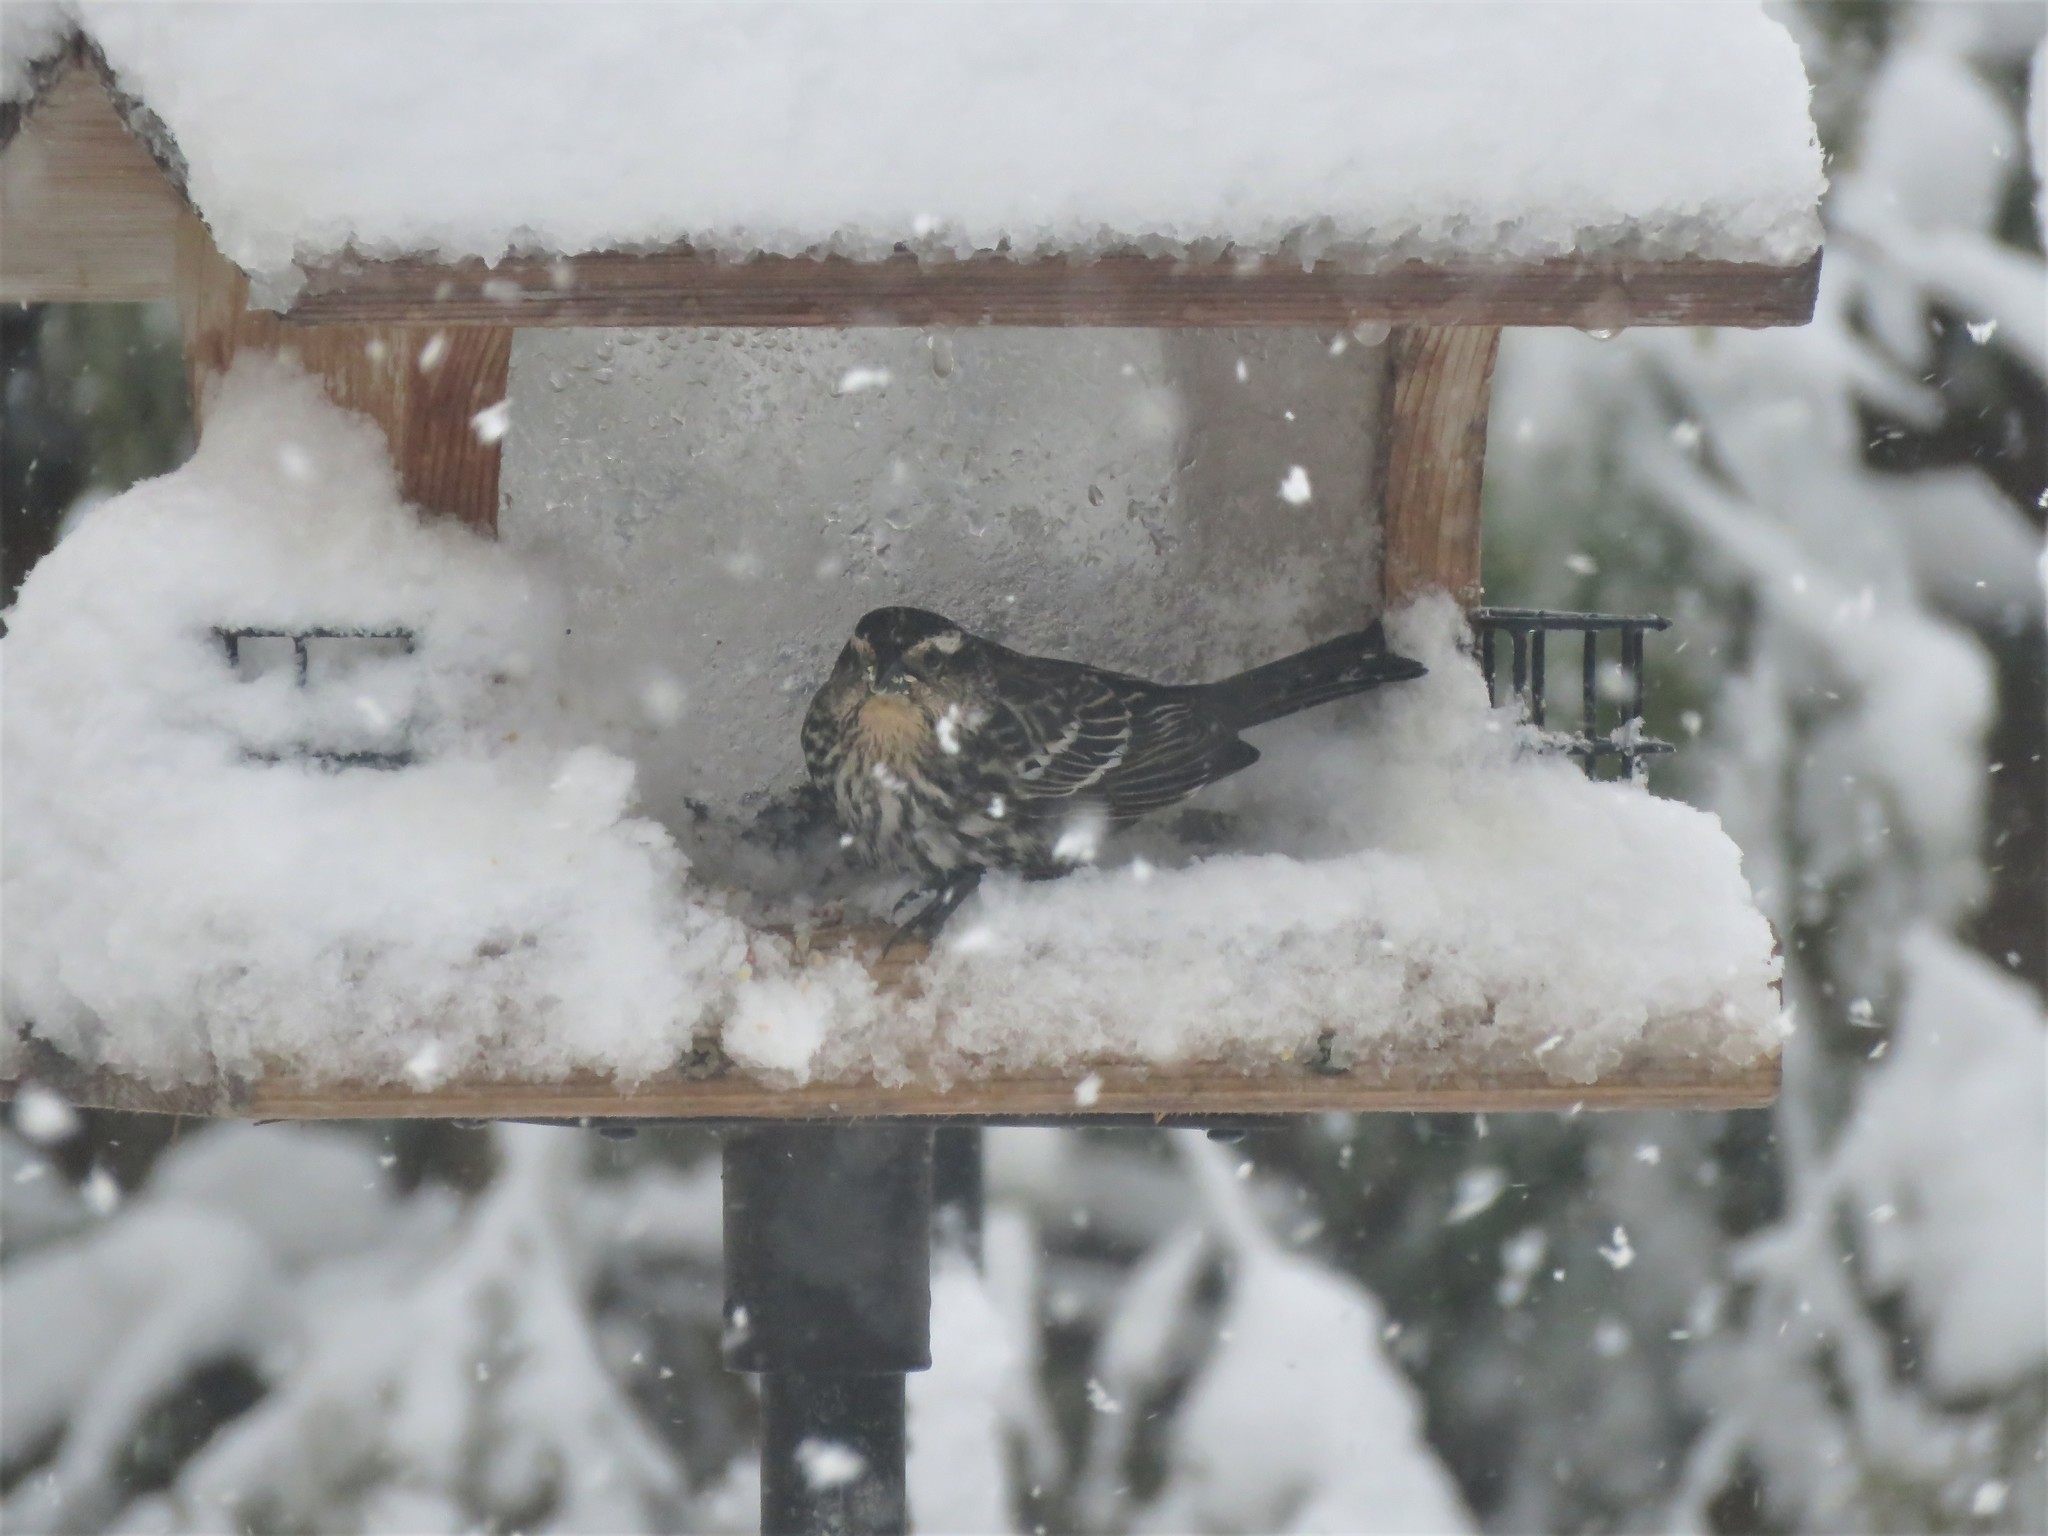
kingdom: Animalia
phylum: Chordata
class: Aves
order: Passeriformes
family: Icteridae
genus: Agelaius
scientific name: Agelaius phoeniceus
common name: Red-winged blackbird
